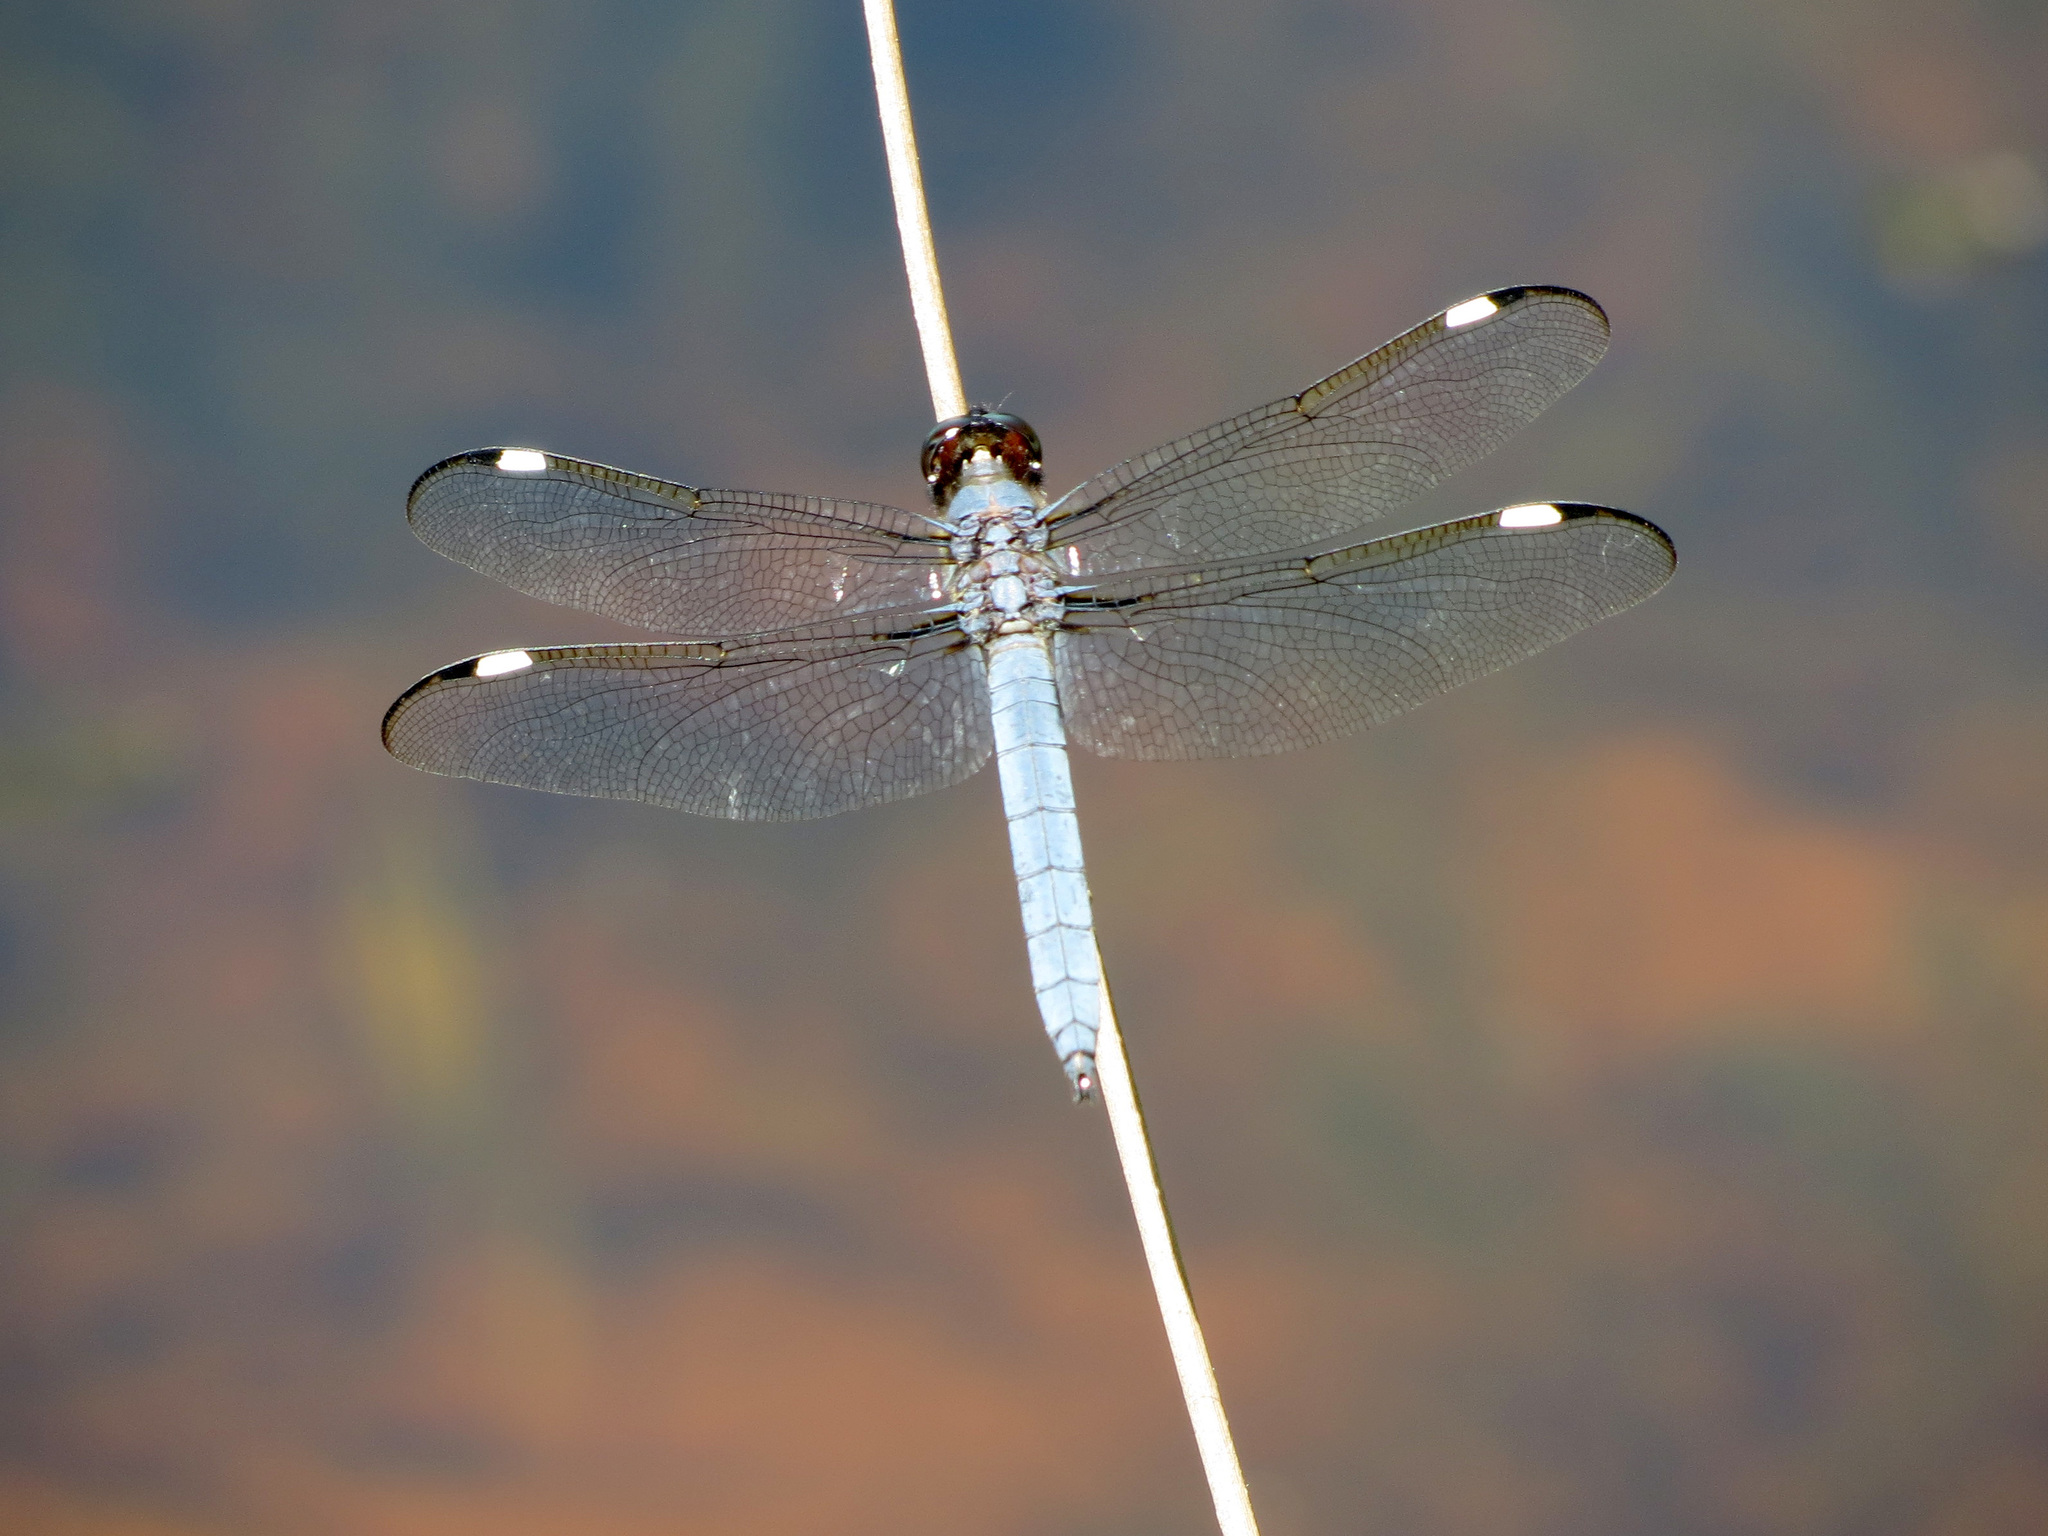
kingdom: Animalia
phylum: Arthropoda
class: Insecta
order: Odonata
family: Libellulidae
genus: Libellula
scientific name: Libellula cyanea
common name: Spangled skimmer
